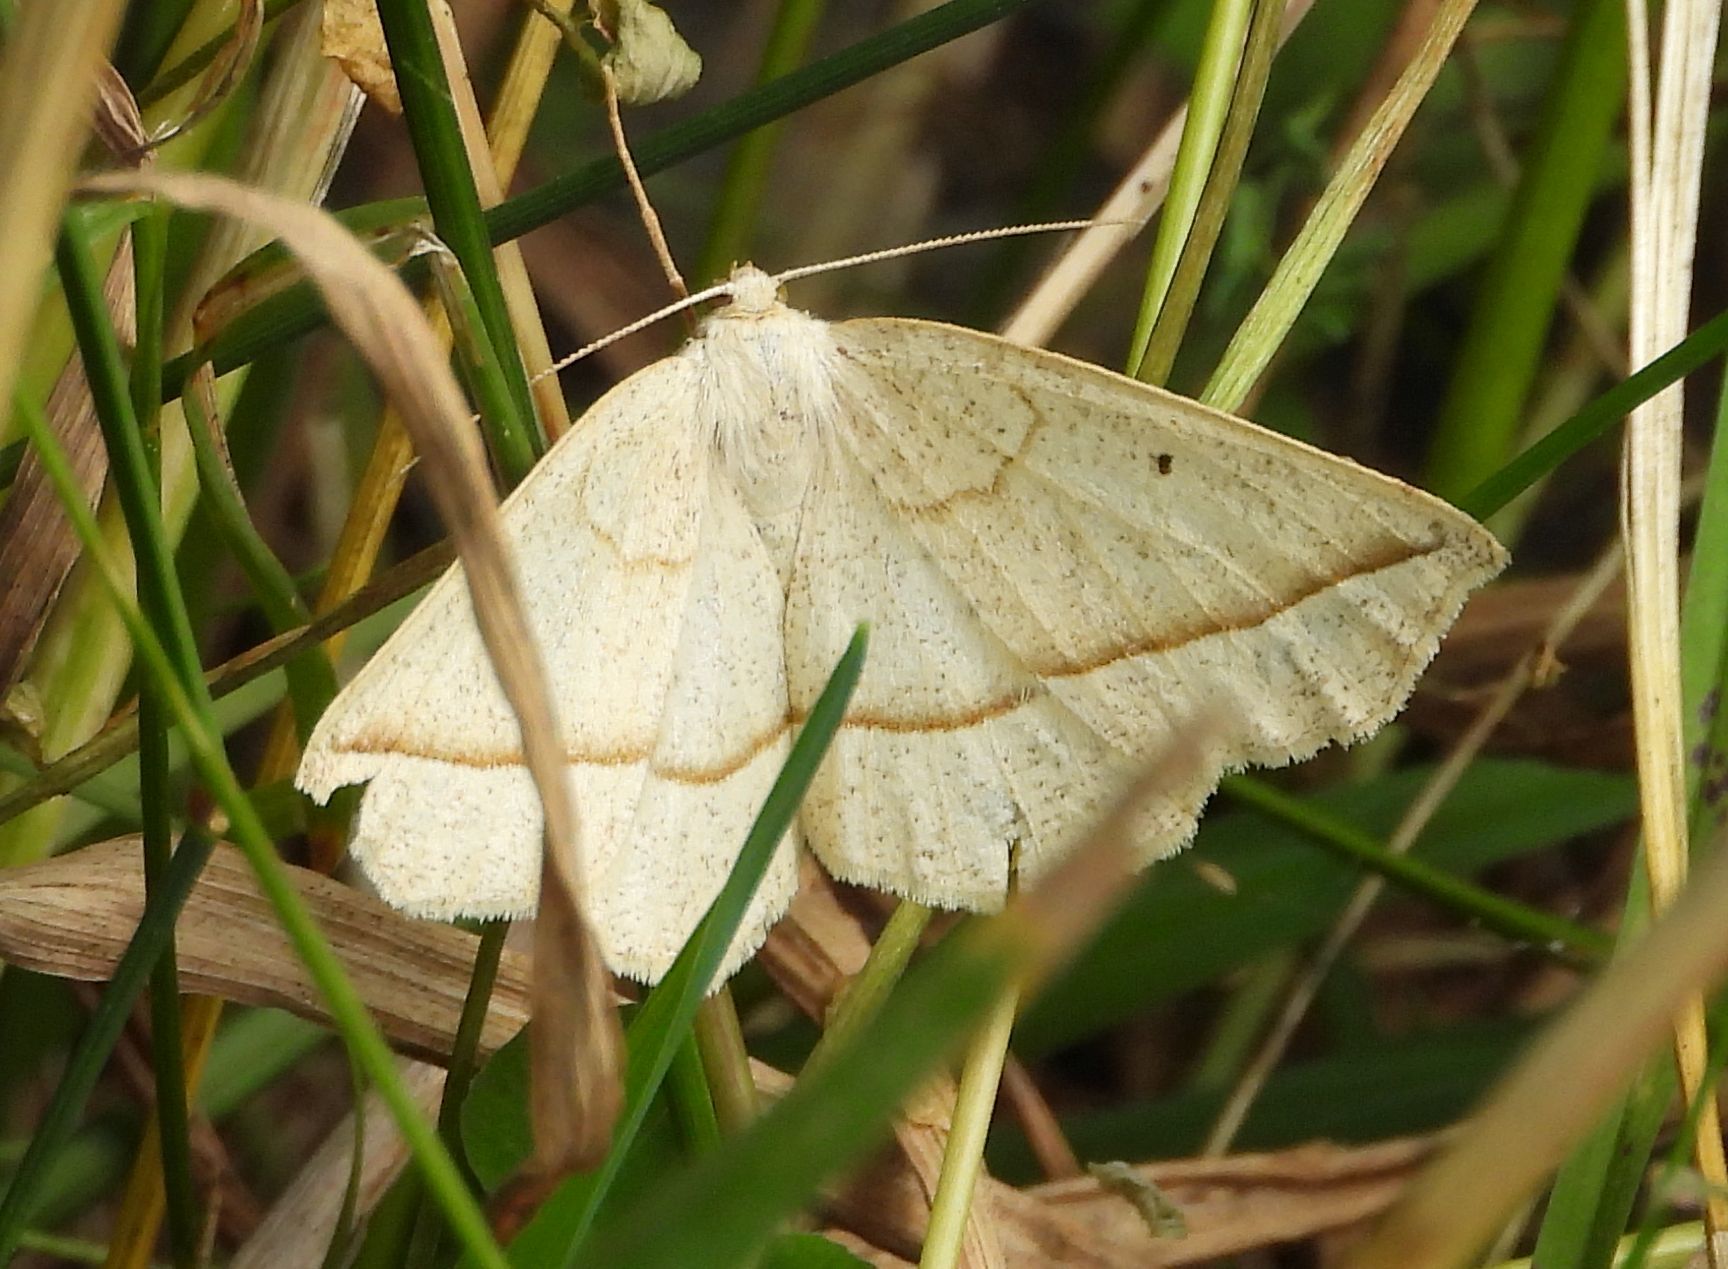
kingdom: Animalia
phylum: Arthropoda
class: Insecta
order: Lepidoptera
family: Geometridae
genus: Eusarca
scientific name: Eusarca confusaria
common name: Confused eusarca
